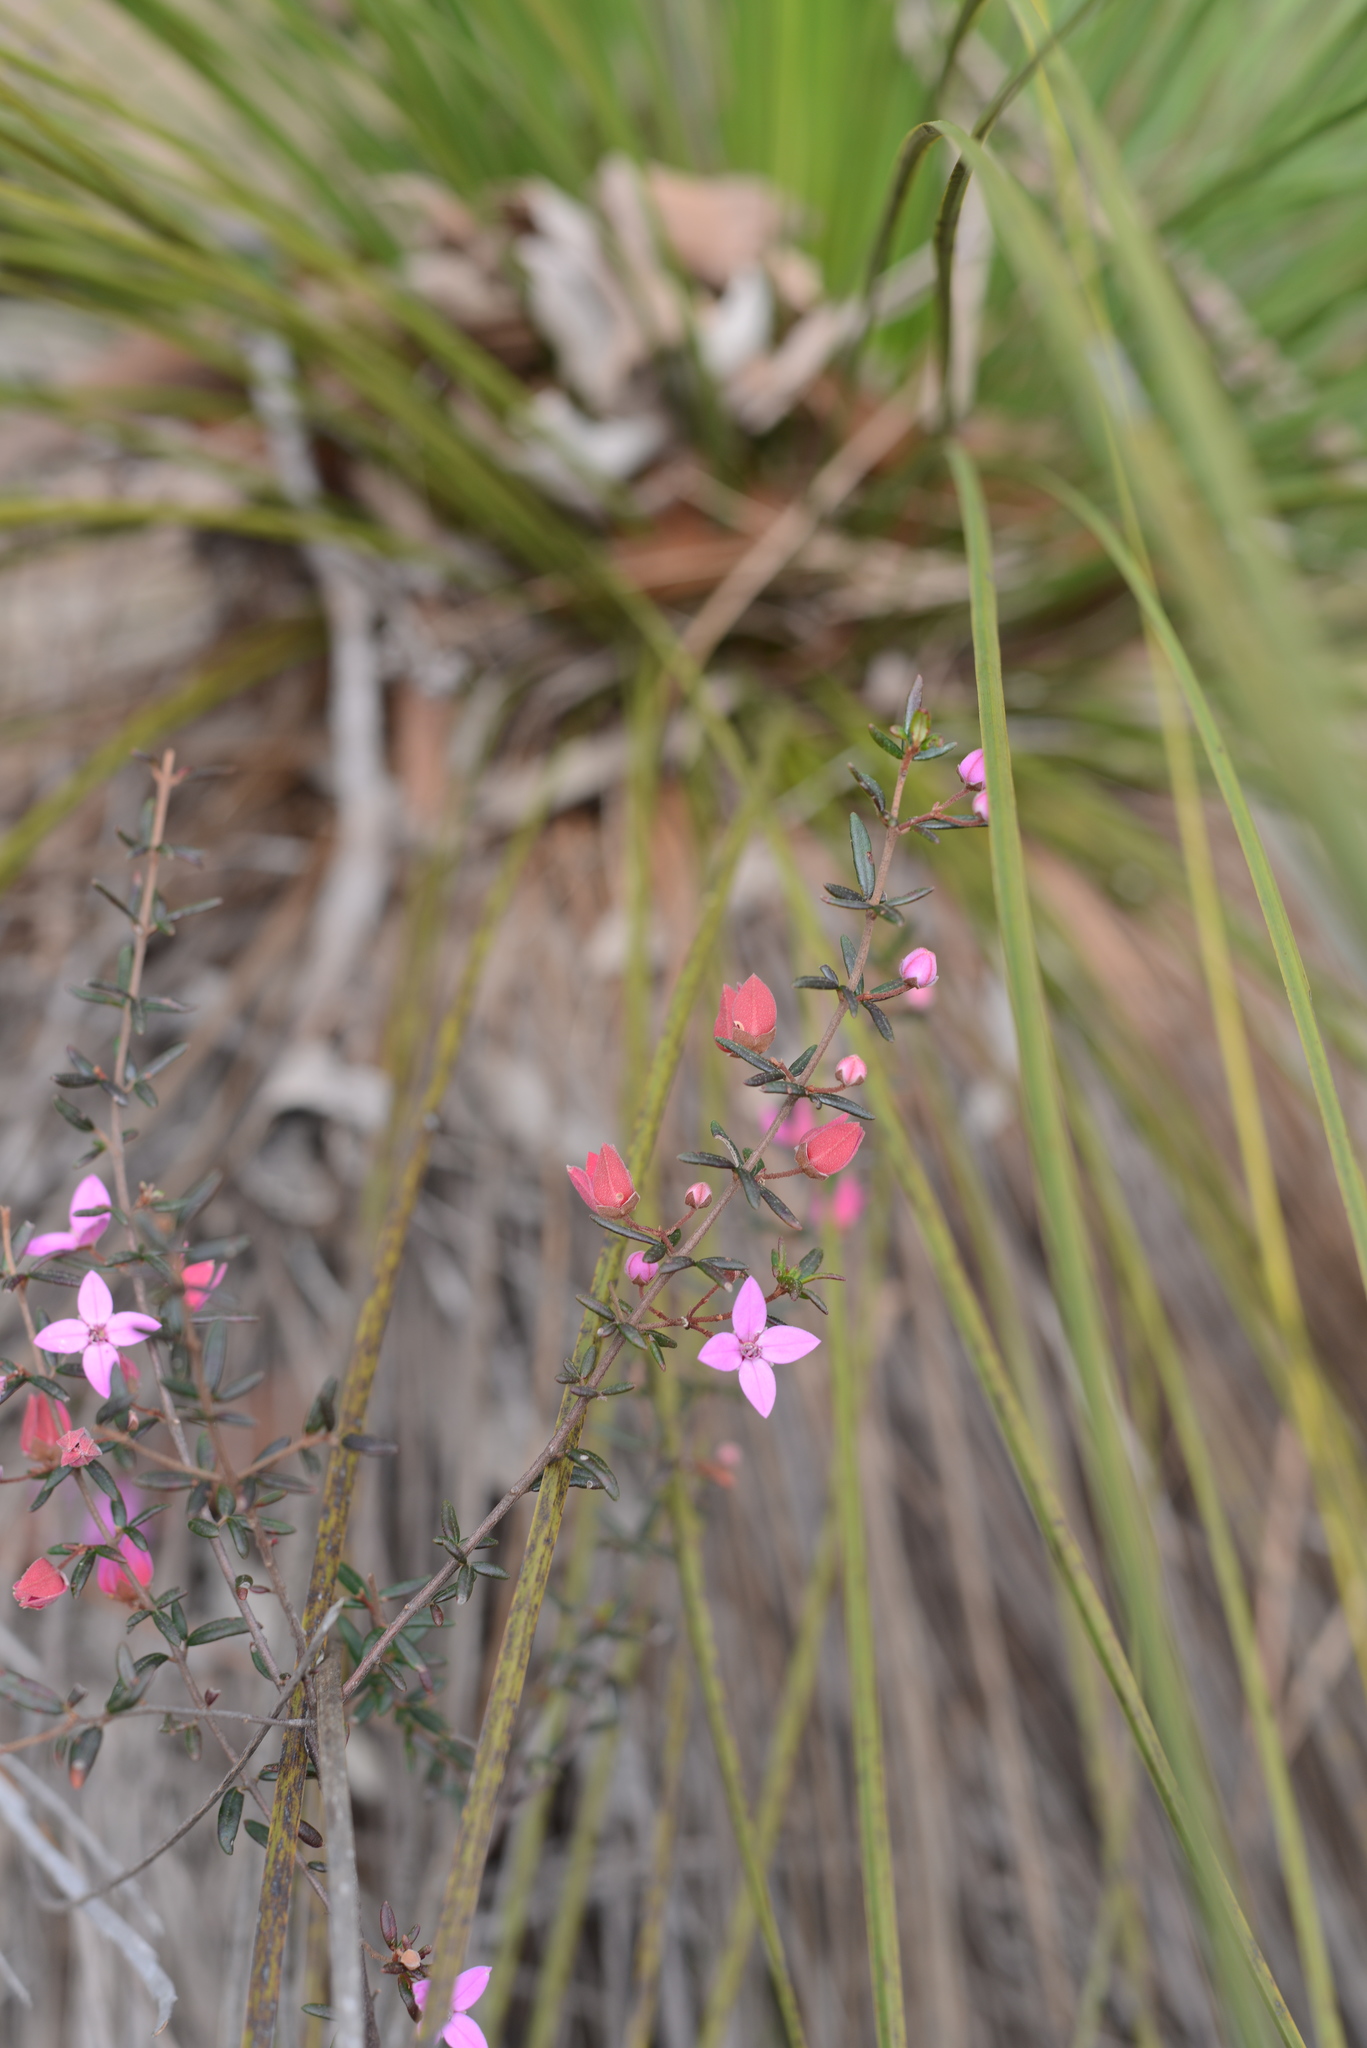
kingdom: Plantae
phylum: Tracheophyta
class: Magnoliopsida
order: Sapindales
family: Rutaceae
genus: Boronia
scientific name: Boronia ledifolia
